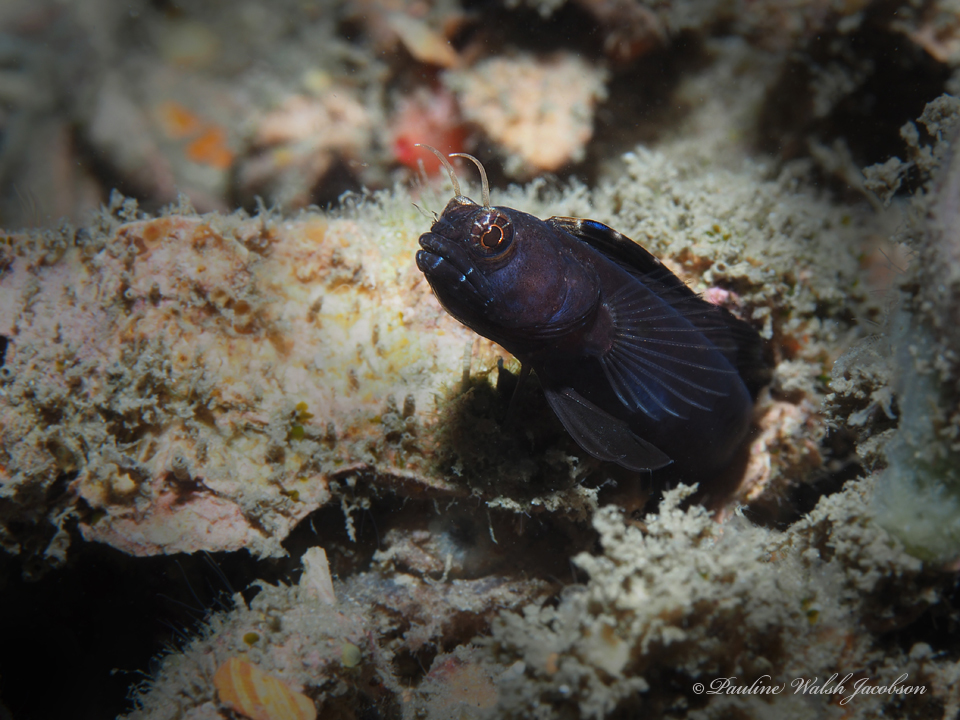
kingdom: Animalia
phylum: Chordata
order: Perciformes
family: Chaenopsidae
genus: Emblemaria
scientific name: Emblemaria pandionis
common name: Sailfin blenny
